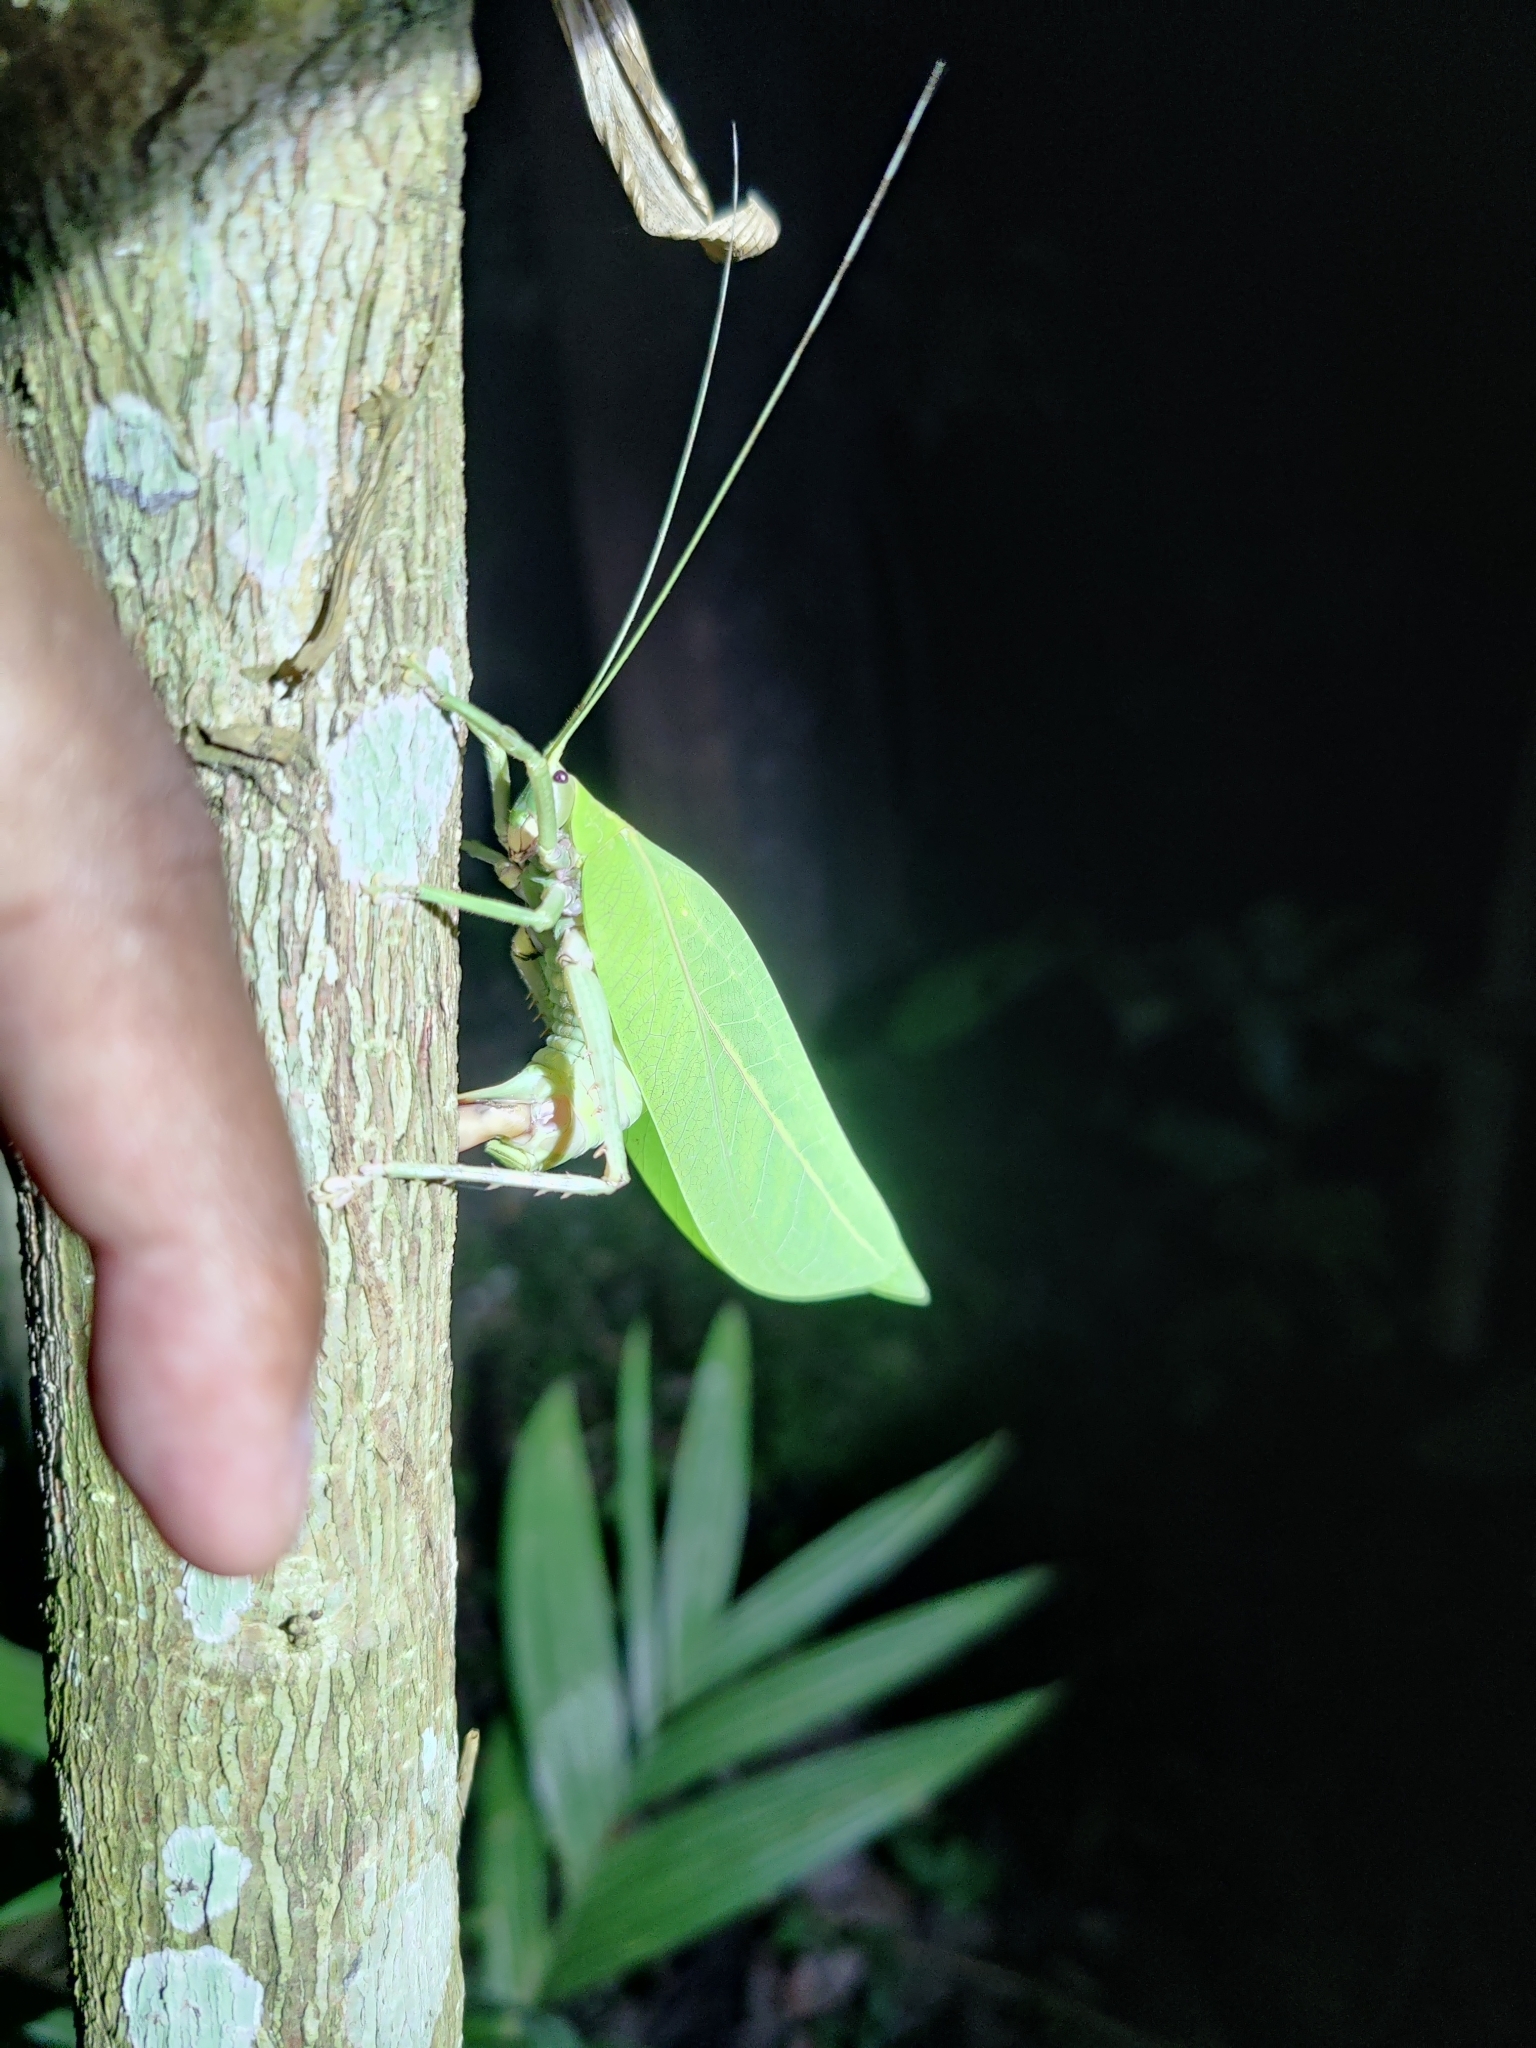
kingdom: Animalia
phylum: Arthropoda
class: Insecta
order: Orthoptera
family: Tettigoniidae
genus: Onomarchus
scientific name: Onomarchus uninotatus
